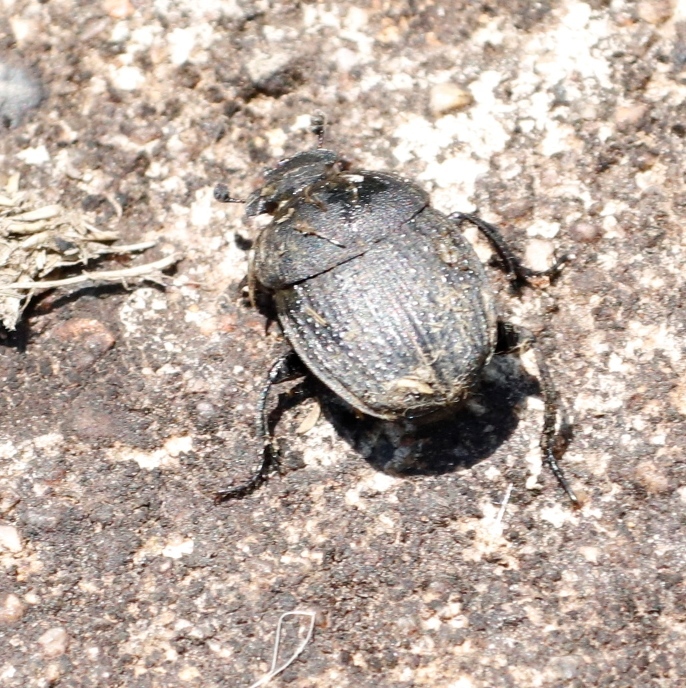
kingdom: Animalia
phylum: Arthropoda
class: Insecta
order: Coleoptera
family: Scarabaeidae
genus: Epirinus
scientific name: Epirinus asper
